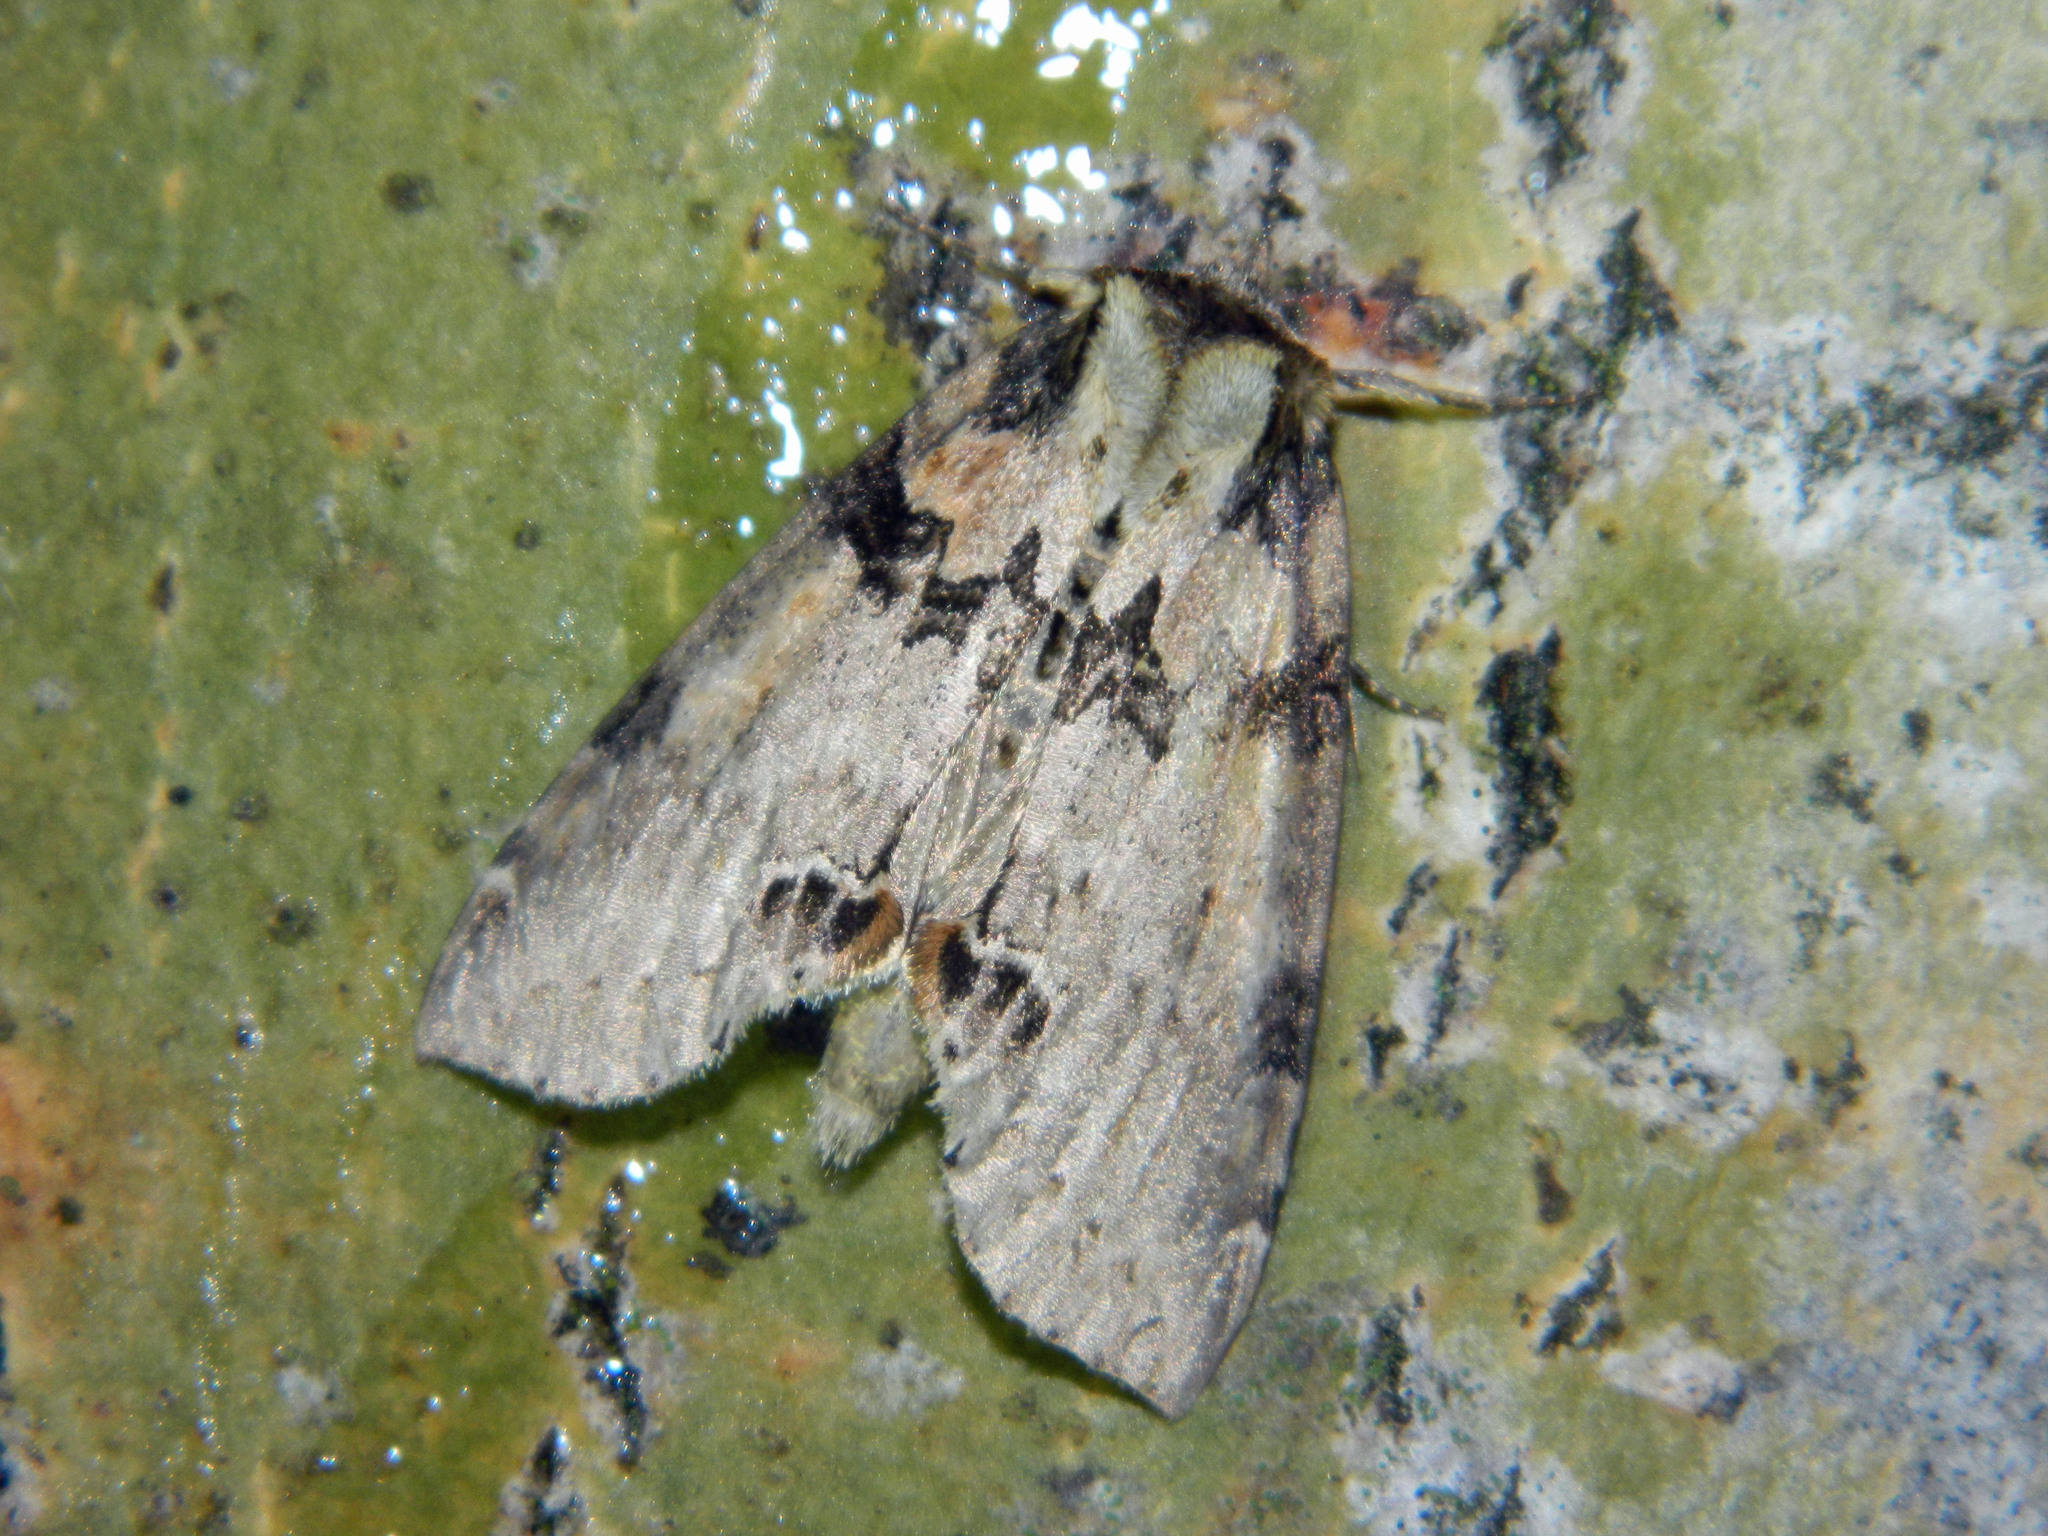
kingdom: Animalia
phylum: Arthropoda
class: Insecta
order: Lepidoptera
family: Drepanidae
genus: Pseudothyatira
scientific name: Pseudothyatira cymatophoroides
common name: Tufted thyatirid moth
